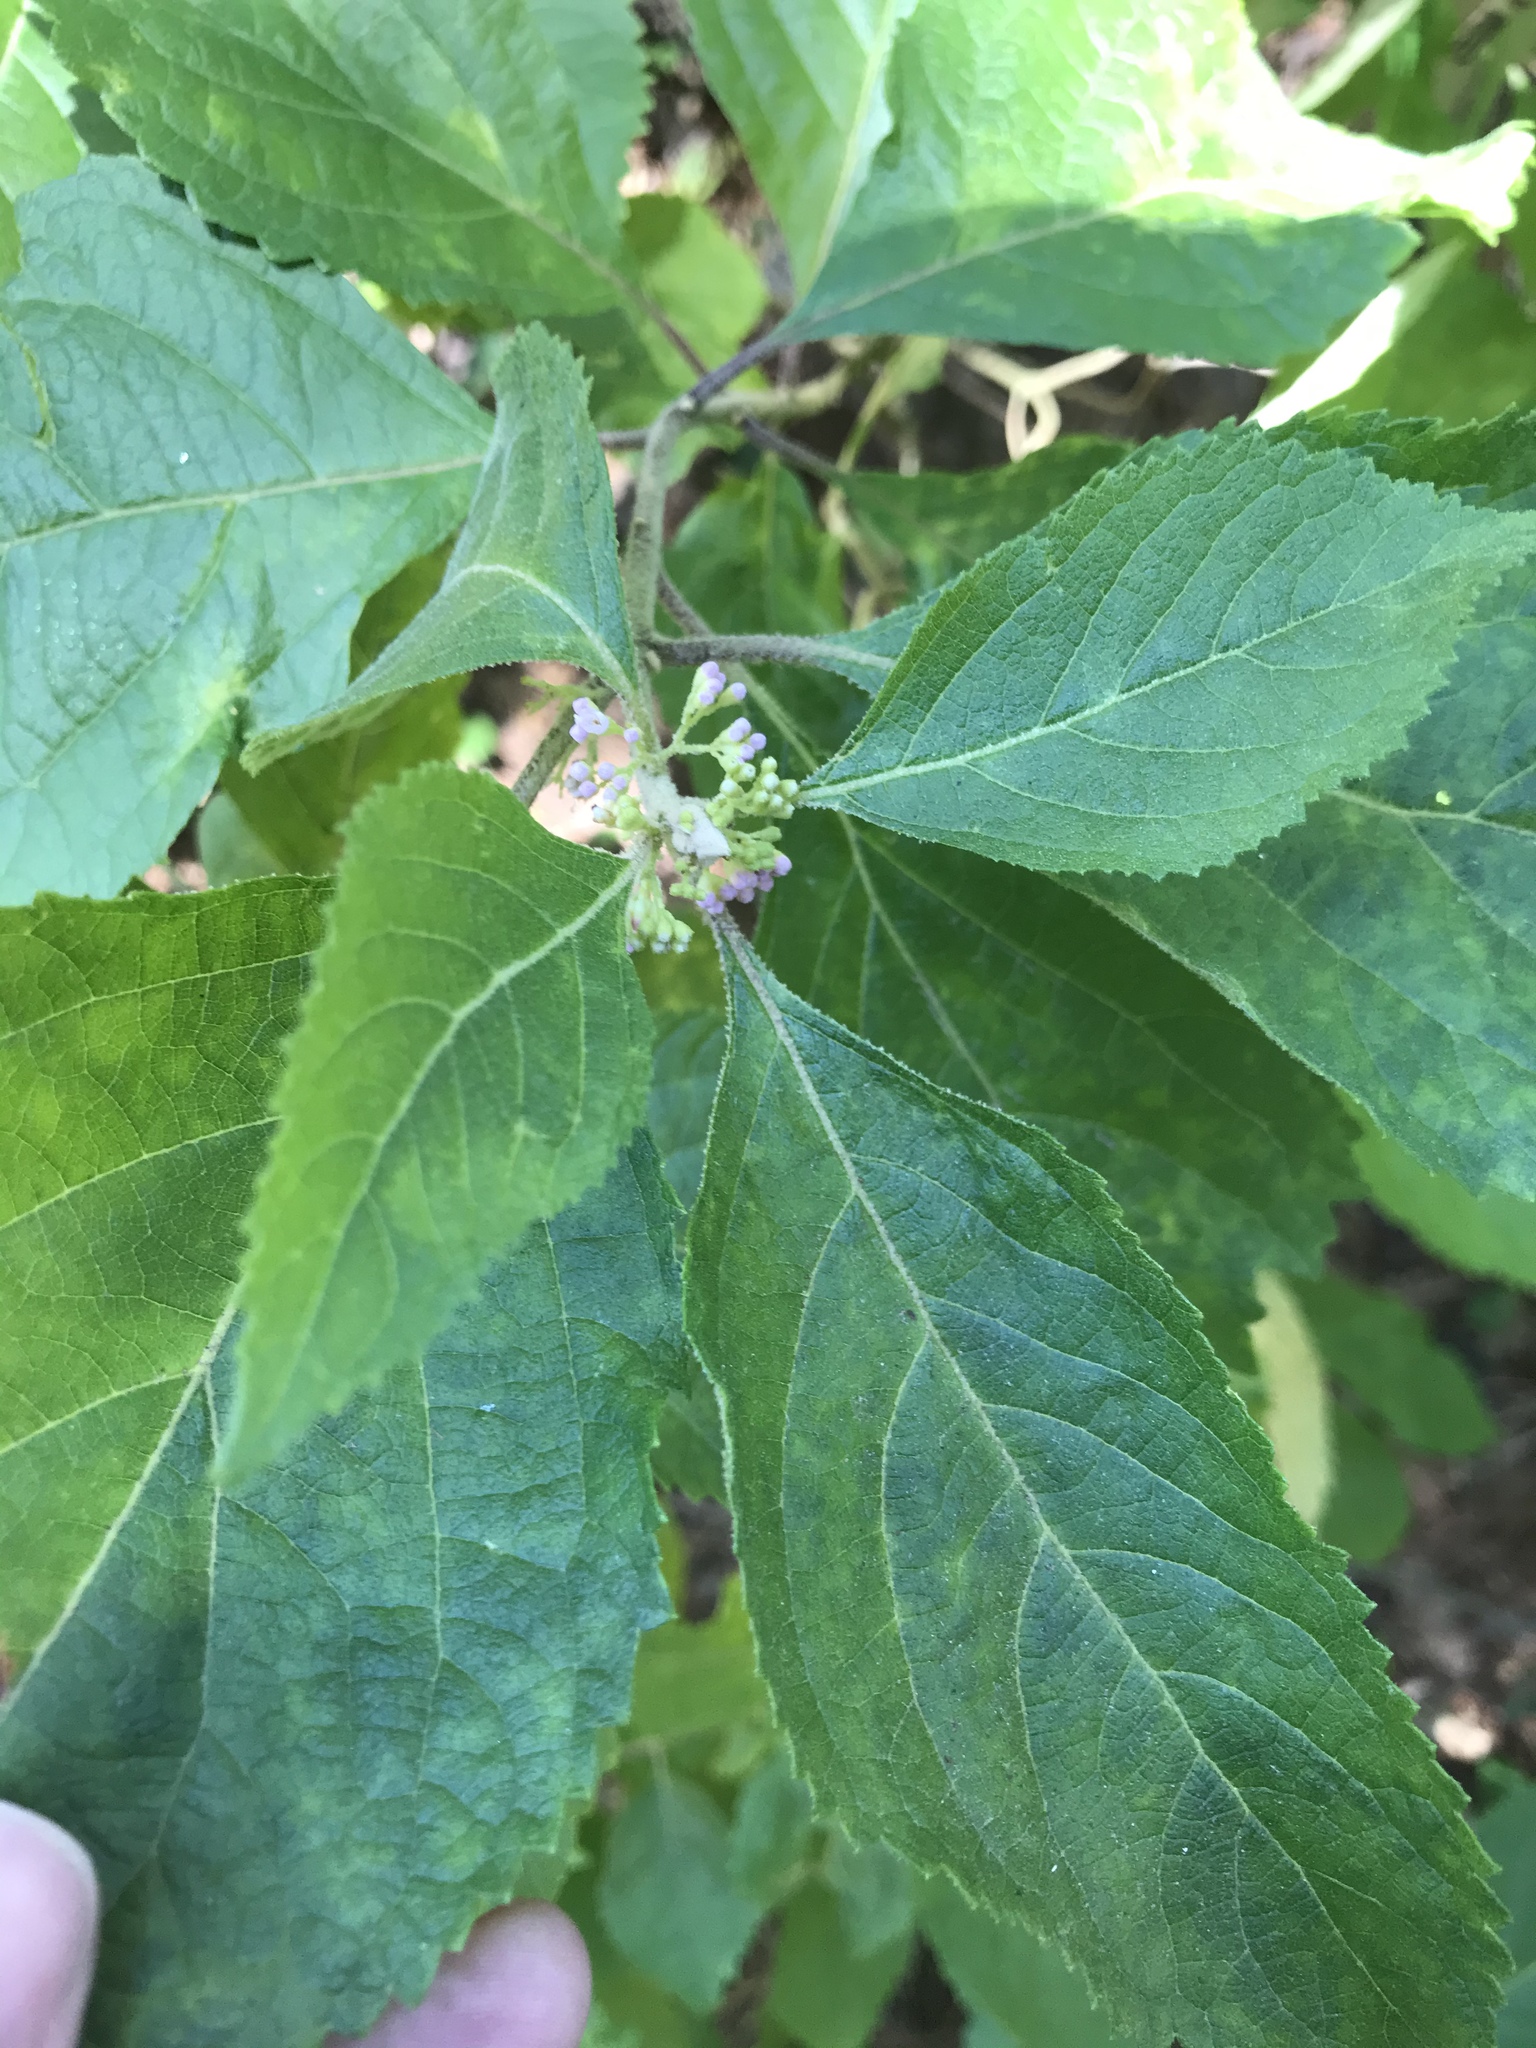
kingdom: Plantae
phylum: Tracheophyta
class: Magnoliopsida
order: Lamiales
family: Lamiaceae
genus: Callicarpa
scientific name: Callicarpa americana
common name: American beautyberry
